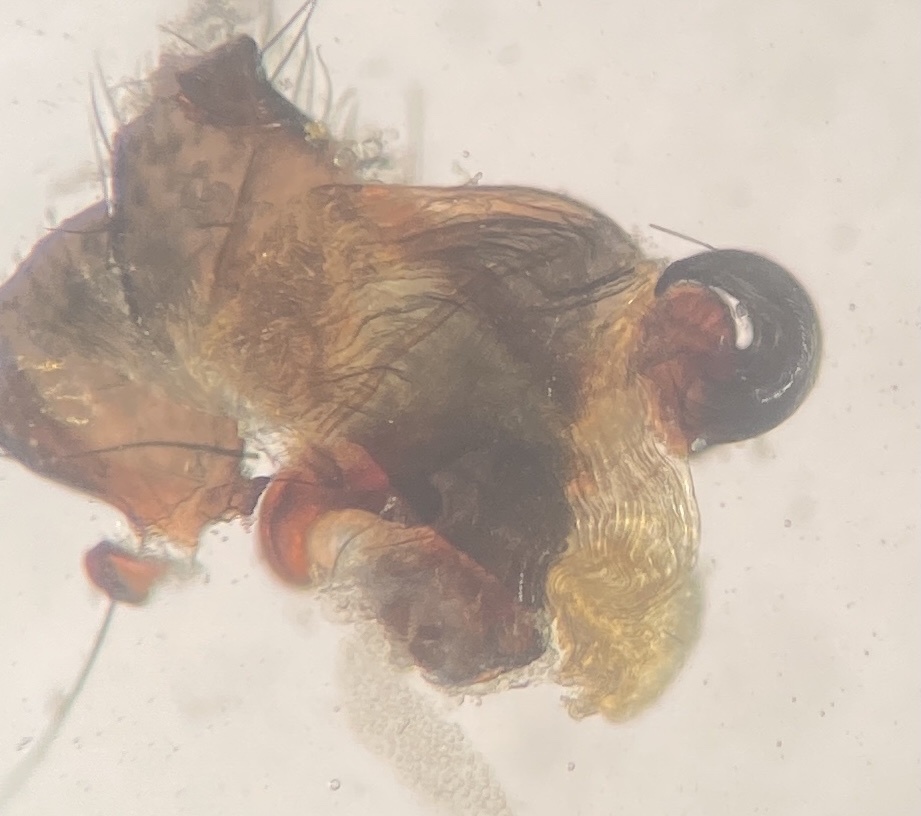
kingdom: Animalia
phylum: Arthropoda
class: Arachnida
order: Araneae
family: Salticidae
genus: Admestina
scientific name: Admestina tibialis
